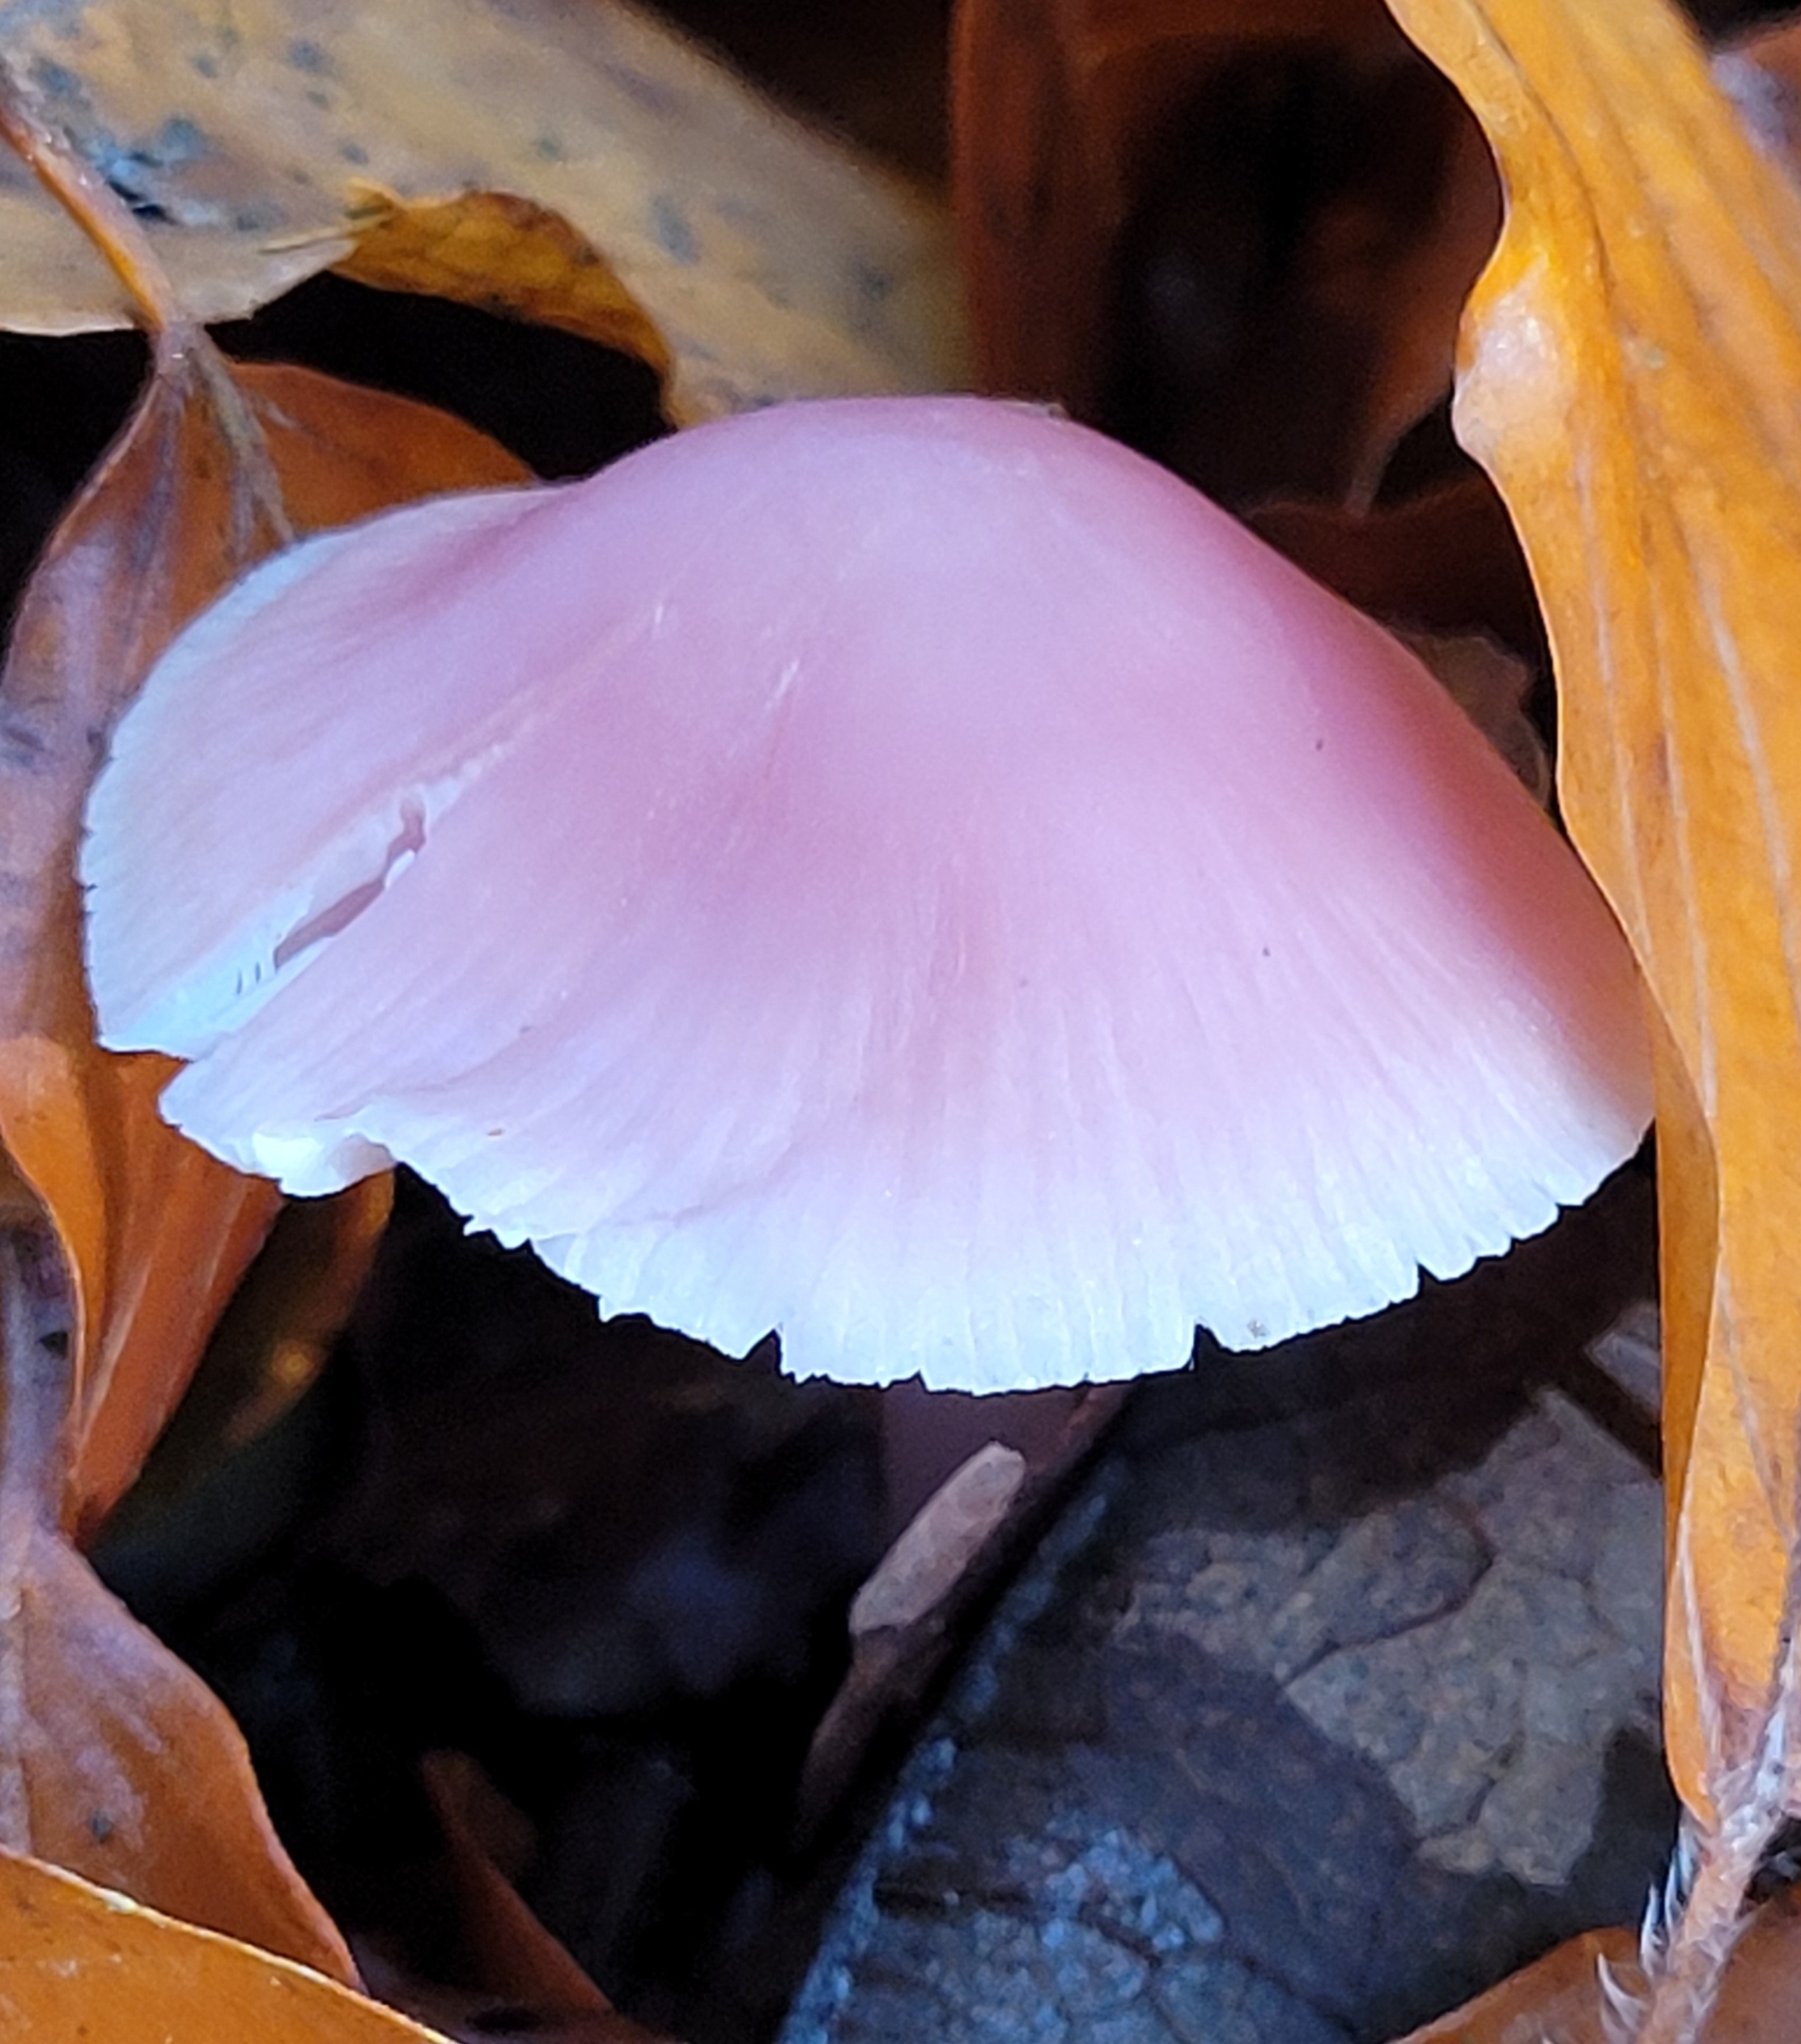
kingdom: Fungi
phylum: Basidiomycota
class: Agaricomycetes
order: Agaricales
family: Mycenaceae
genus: Mycena
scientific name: Mycena rosea
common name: Rosy bonnet
